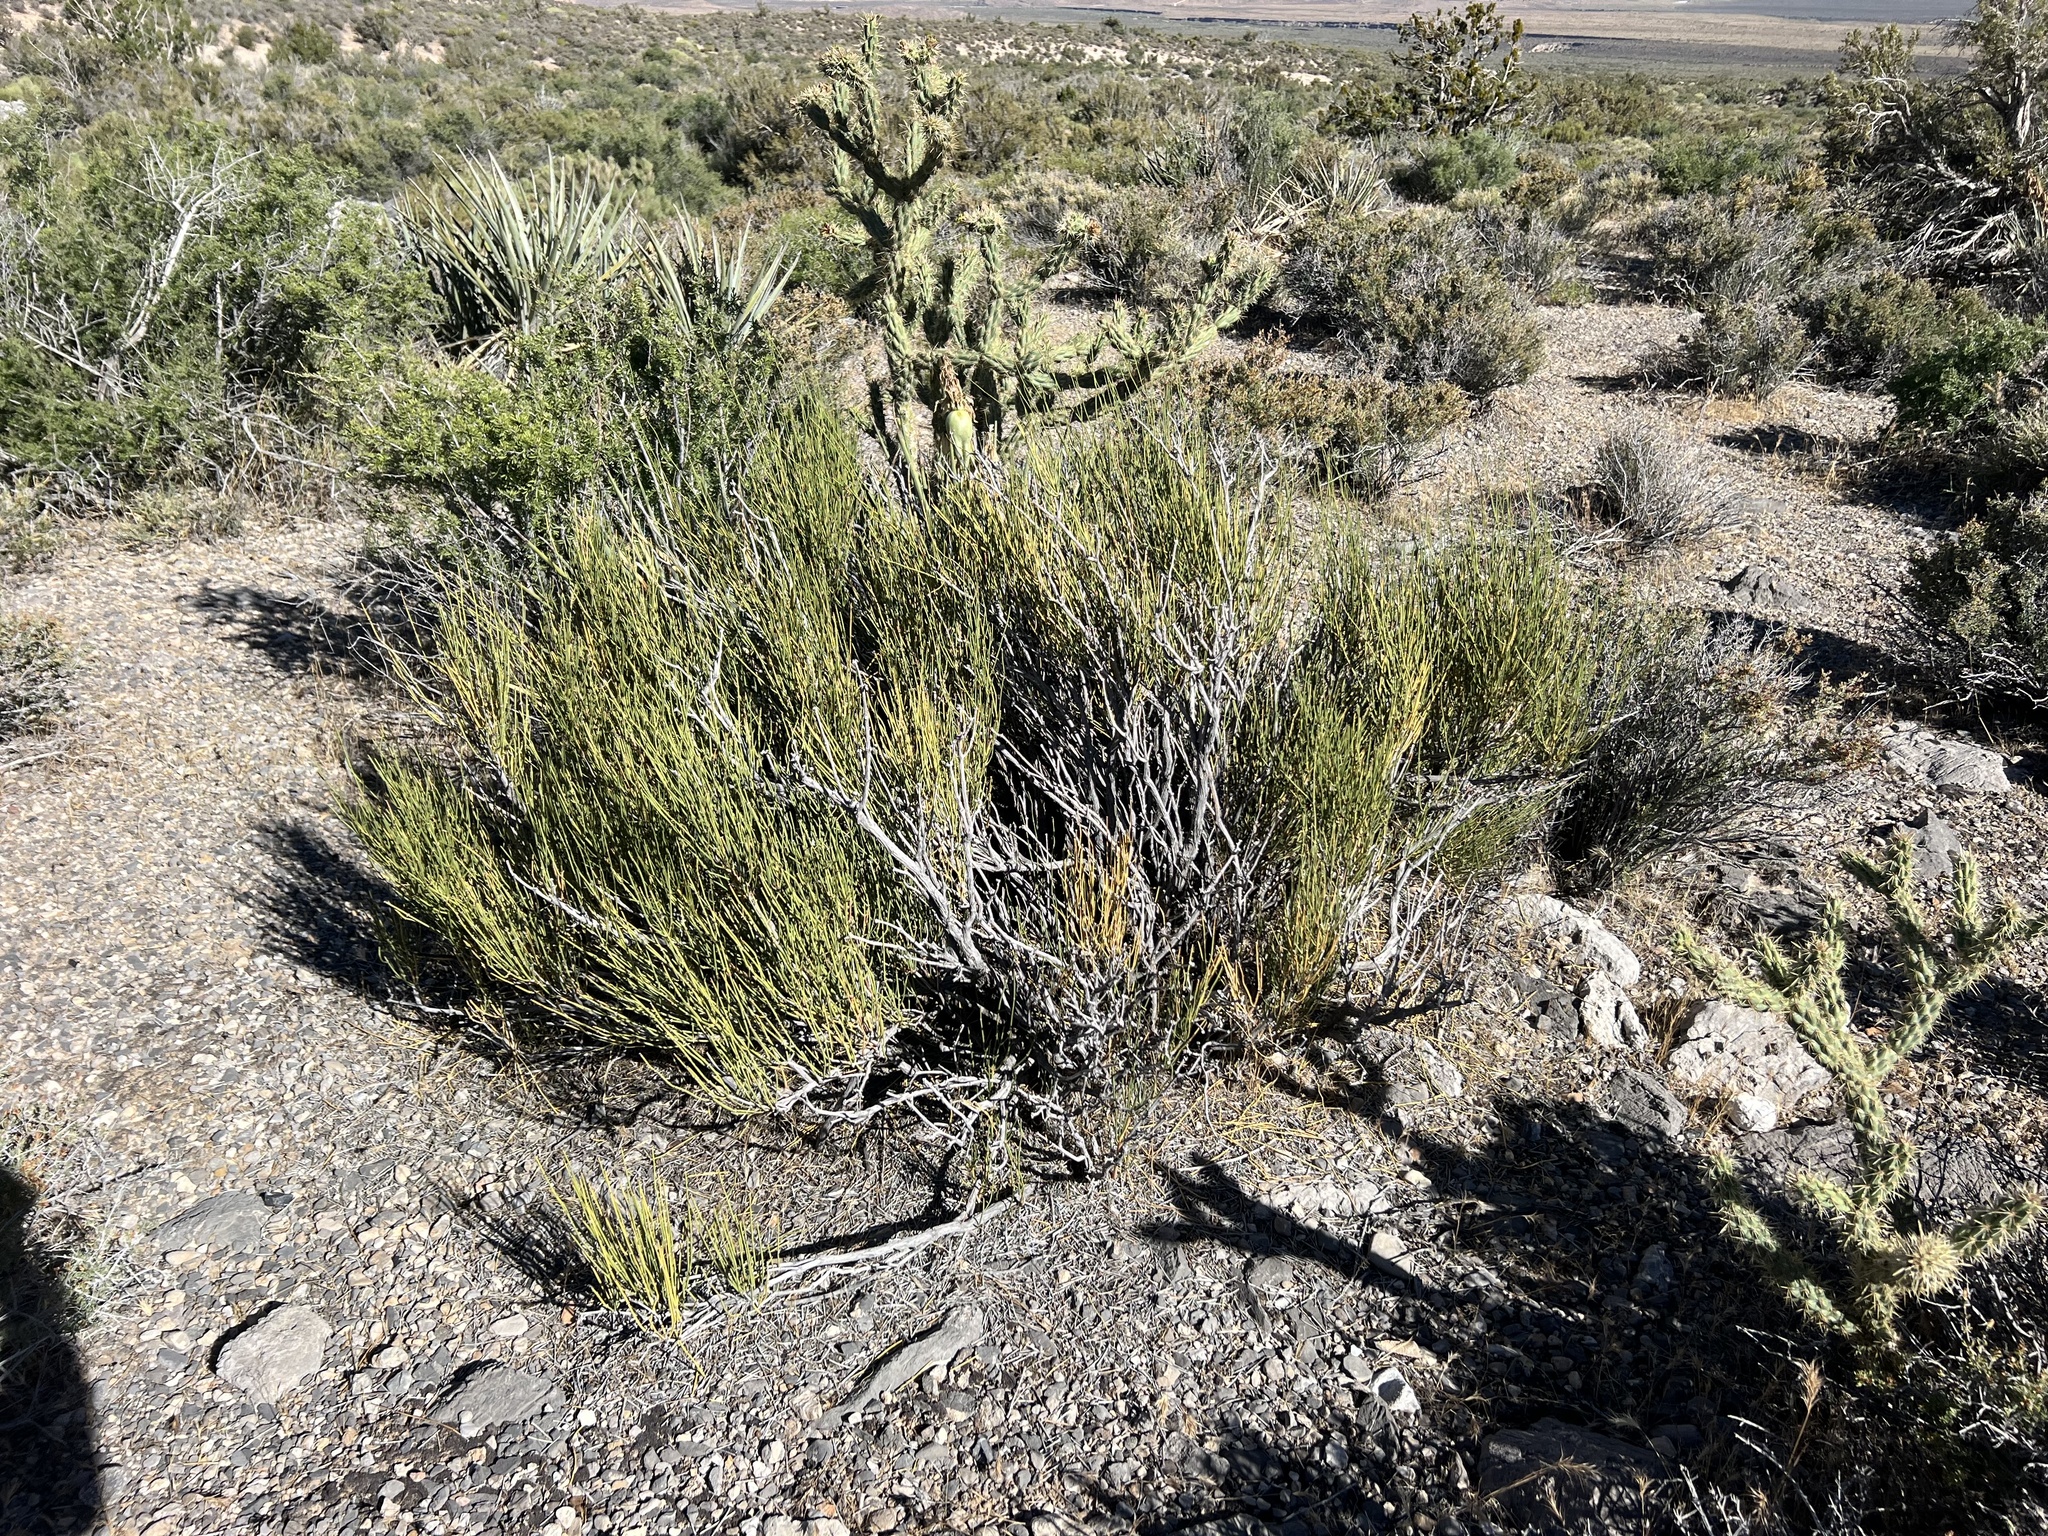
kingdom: Plantae
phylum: Tracheophyta
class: Gnetopsida
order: Ephedrales
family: Ephedraceae
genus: Ephedra
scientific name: Ephedra viridis
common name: Green ephedra
